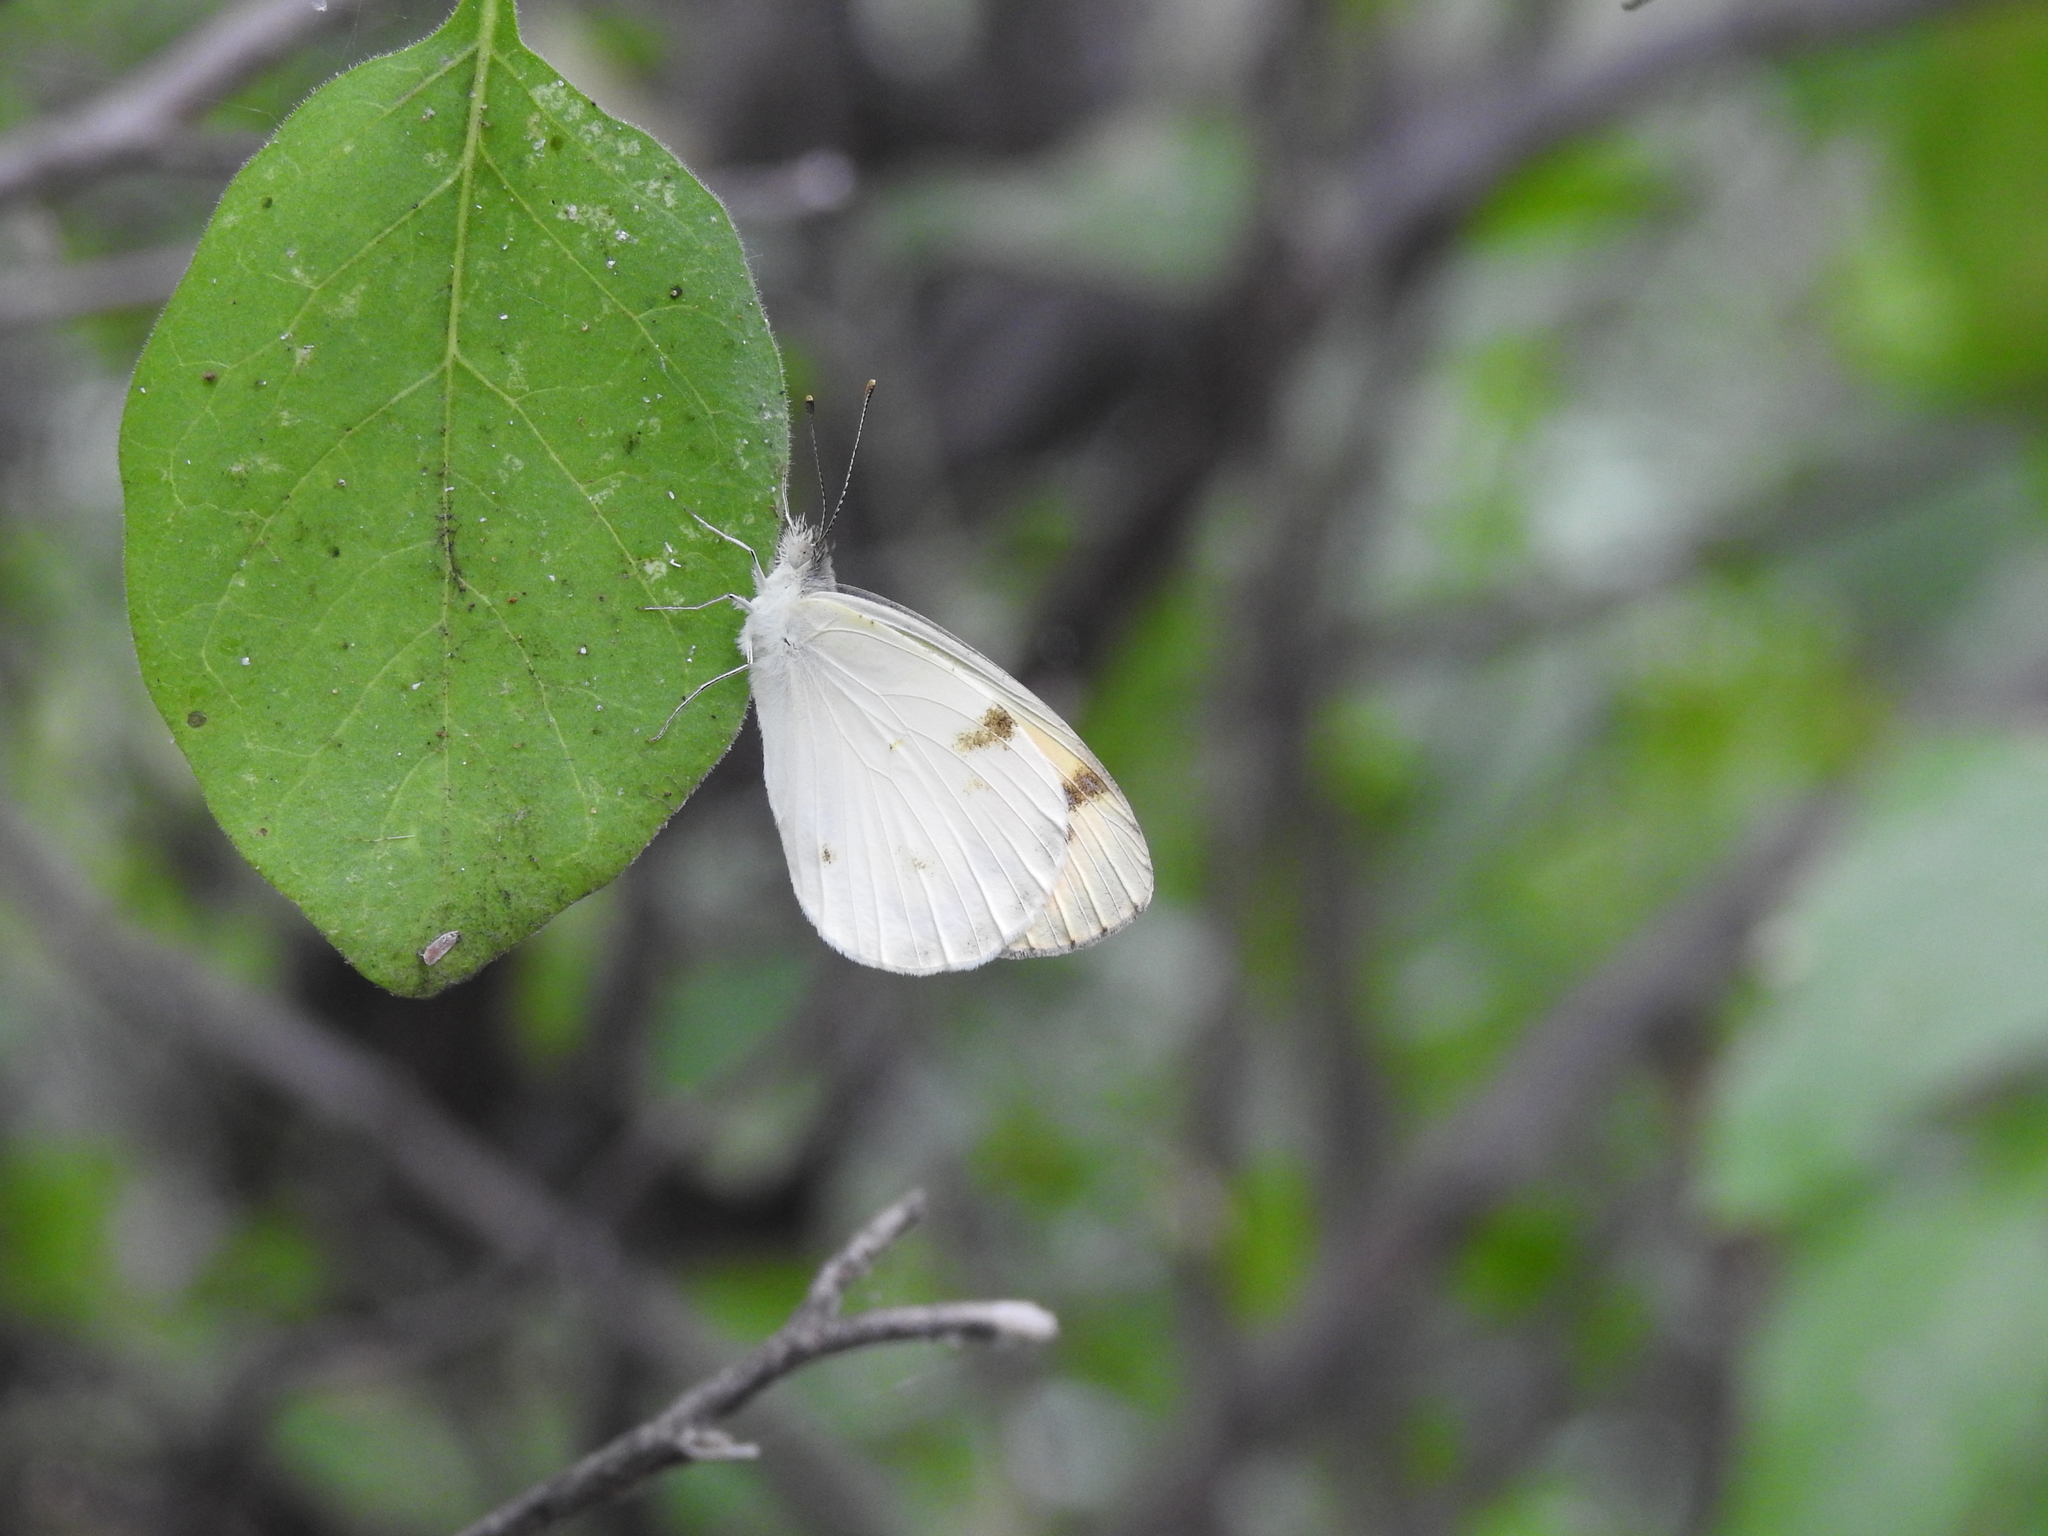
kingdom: Animalia
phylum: Arthropoda
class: Insecta
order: Lepidoptera
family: Pieridae
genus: Colotis
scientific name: Colotis aurora
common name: Plain orange-tip
